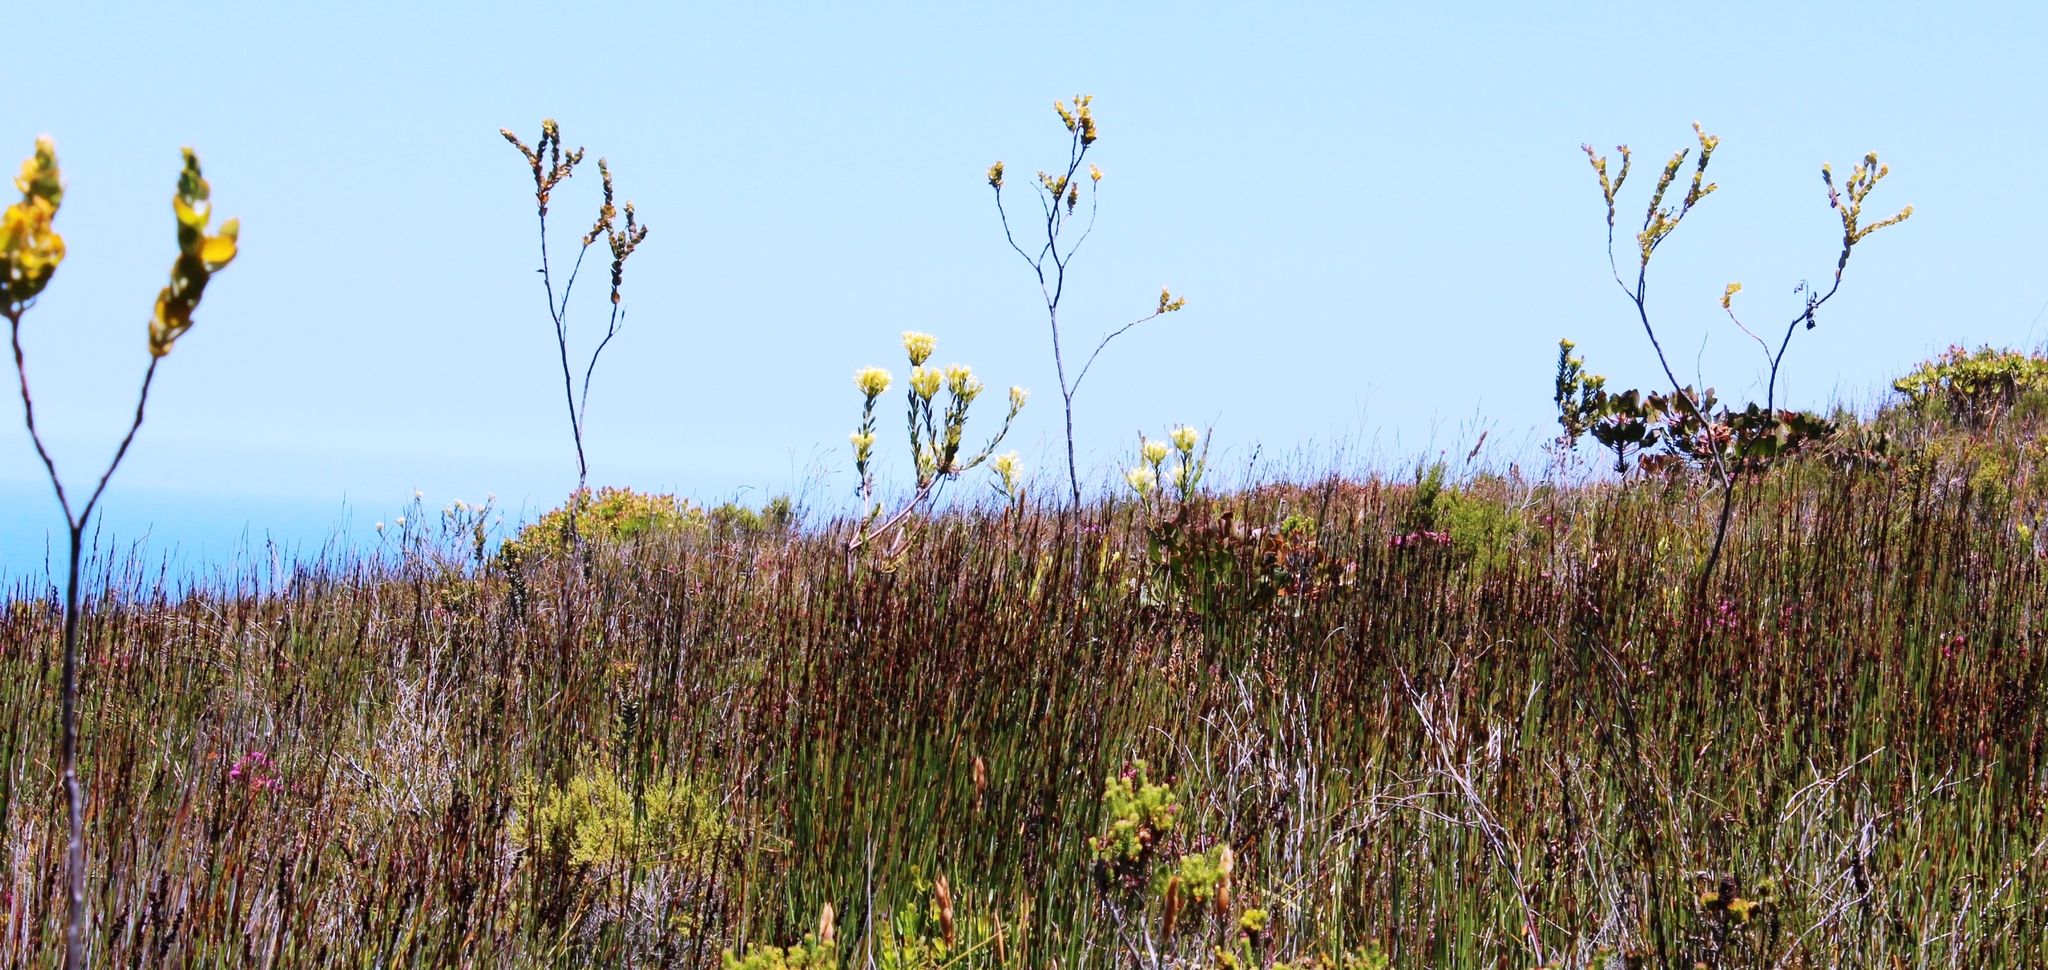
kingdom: Plantae
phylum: Tracheophyta
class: Magnoliopsida
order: Santalales
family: Thesiaceae
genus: Thesium
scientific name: Thesium euphorbioides
